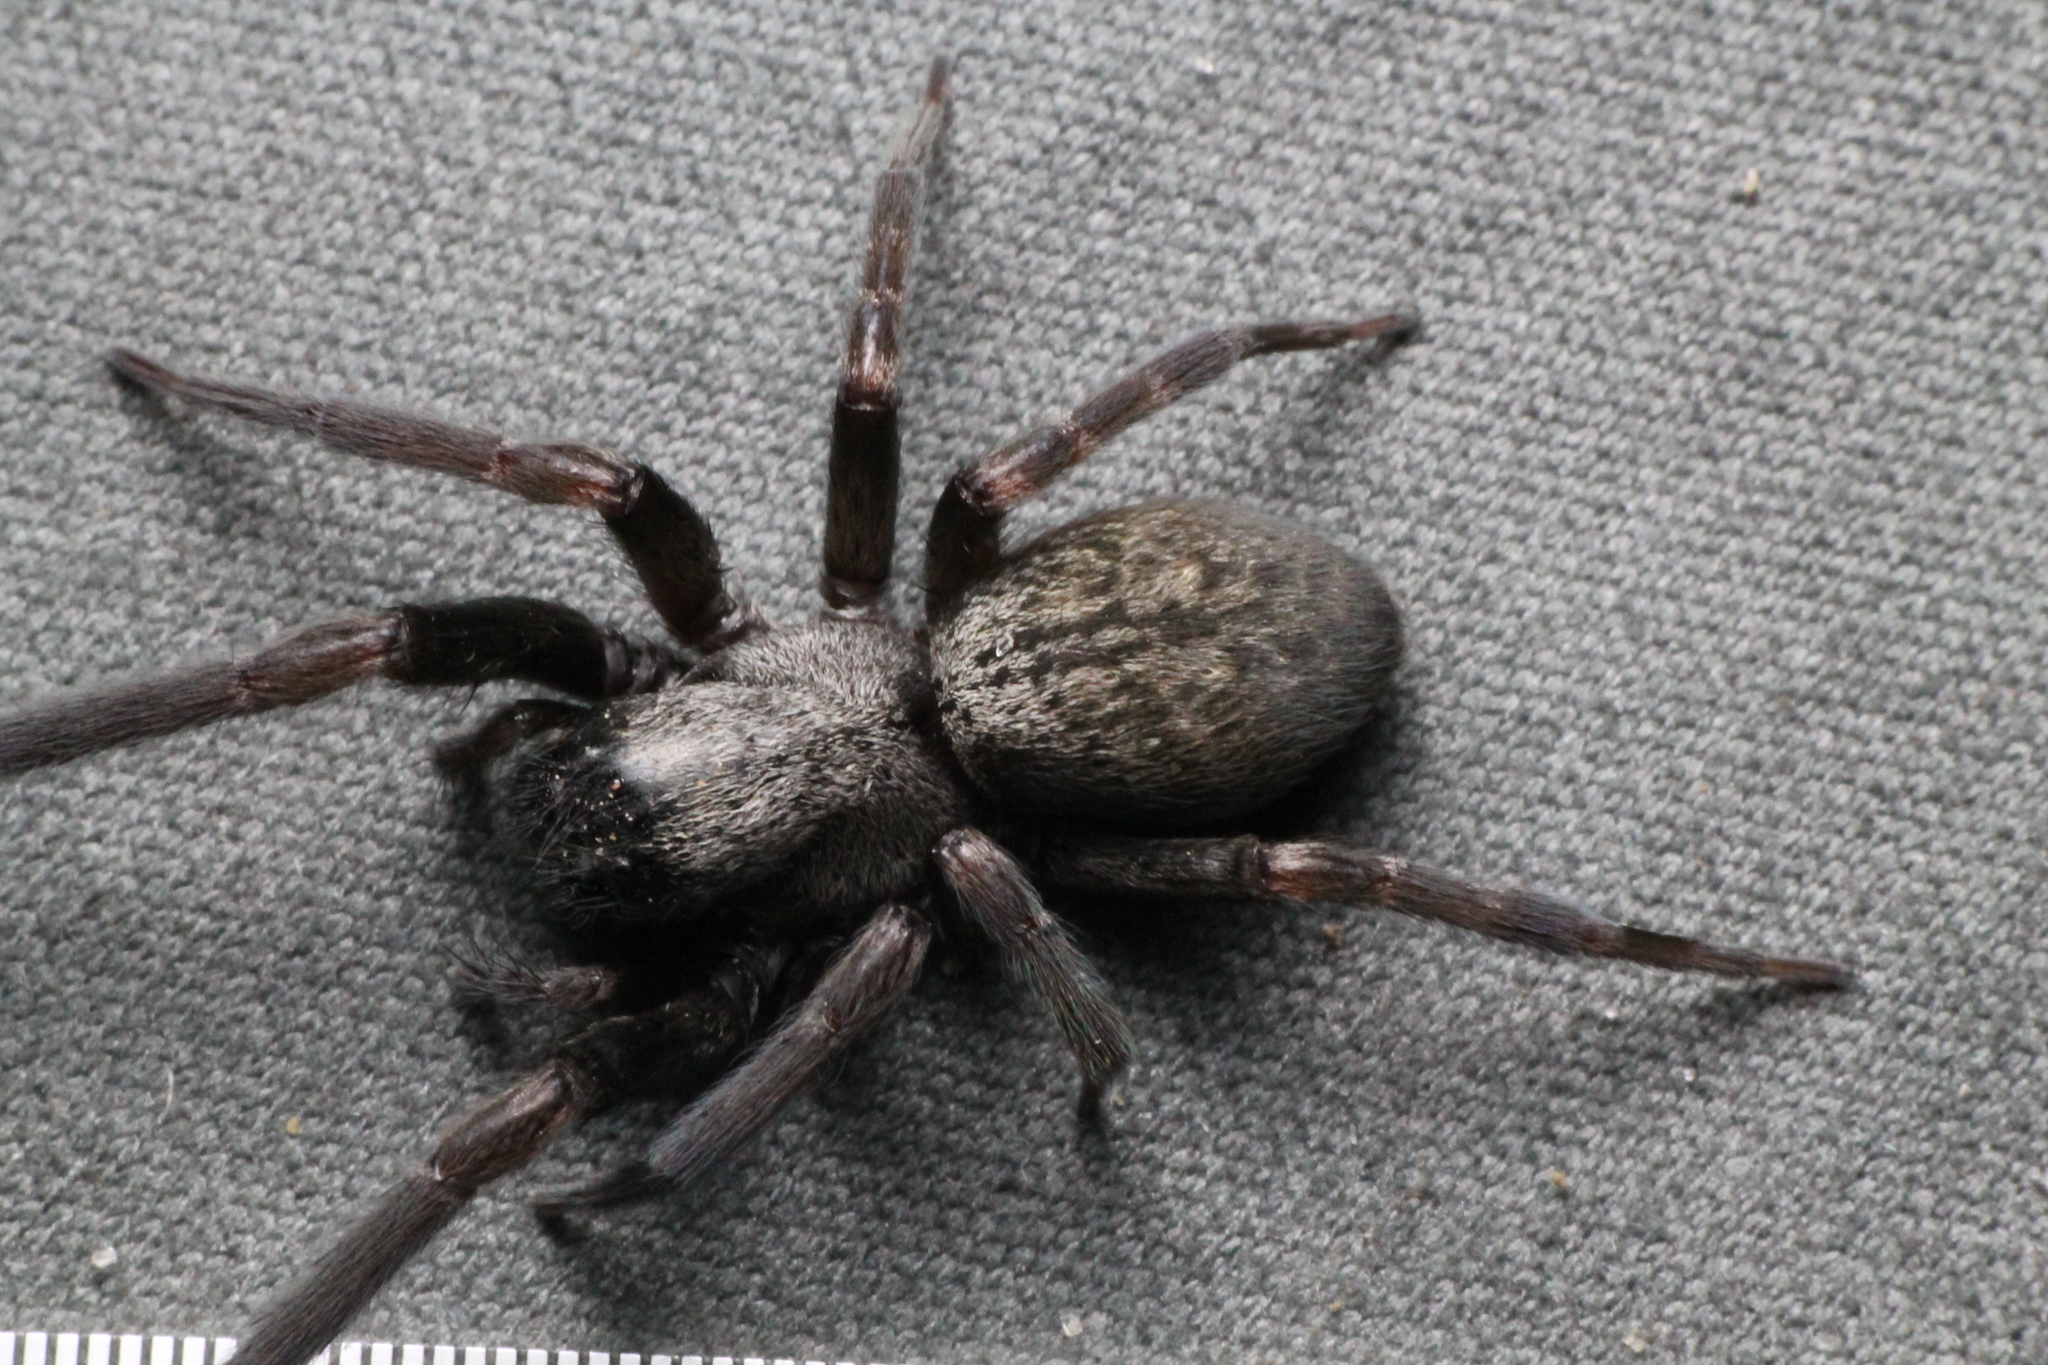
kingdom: Animalia
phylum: Arthropoda
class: Arachnida
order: Araneae
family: Desidae
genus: Badumna
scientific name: Badumna longinqua
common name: Gray house spider
